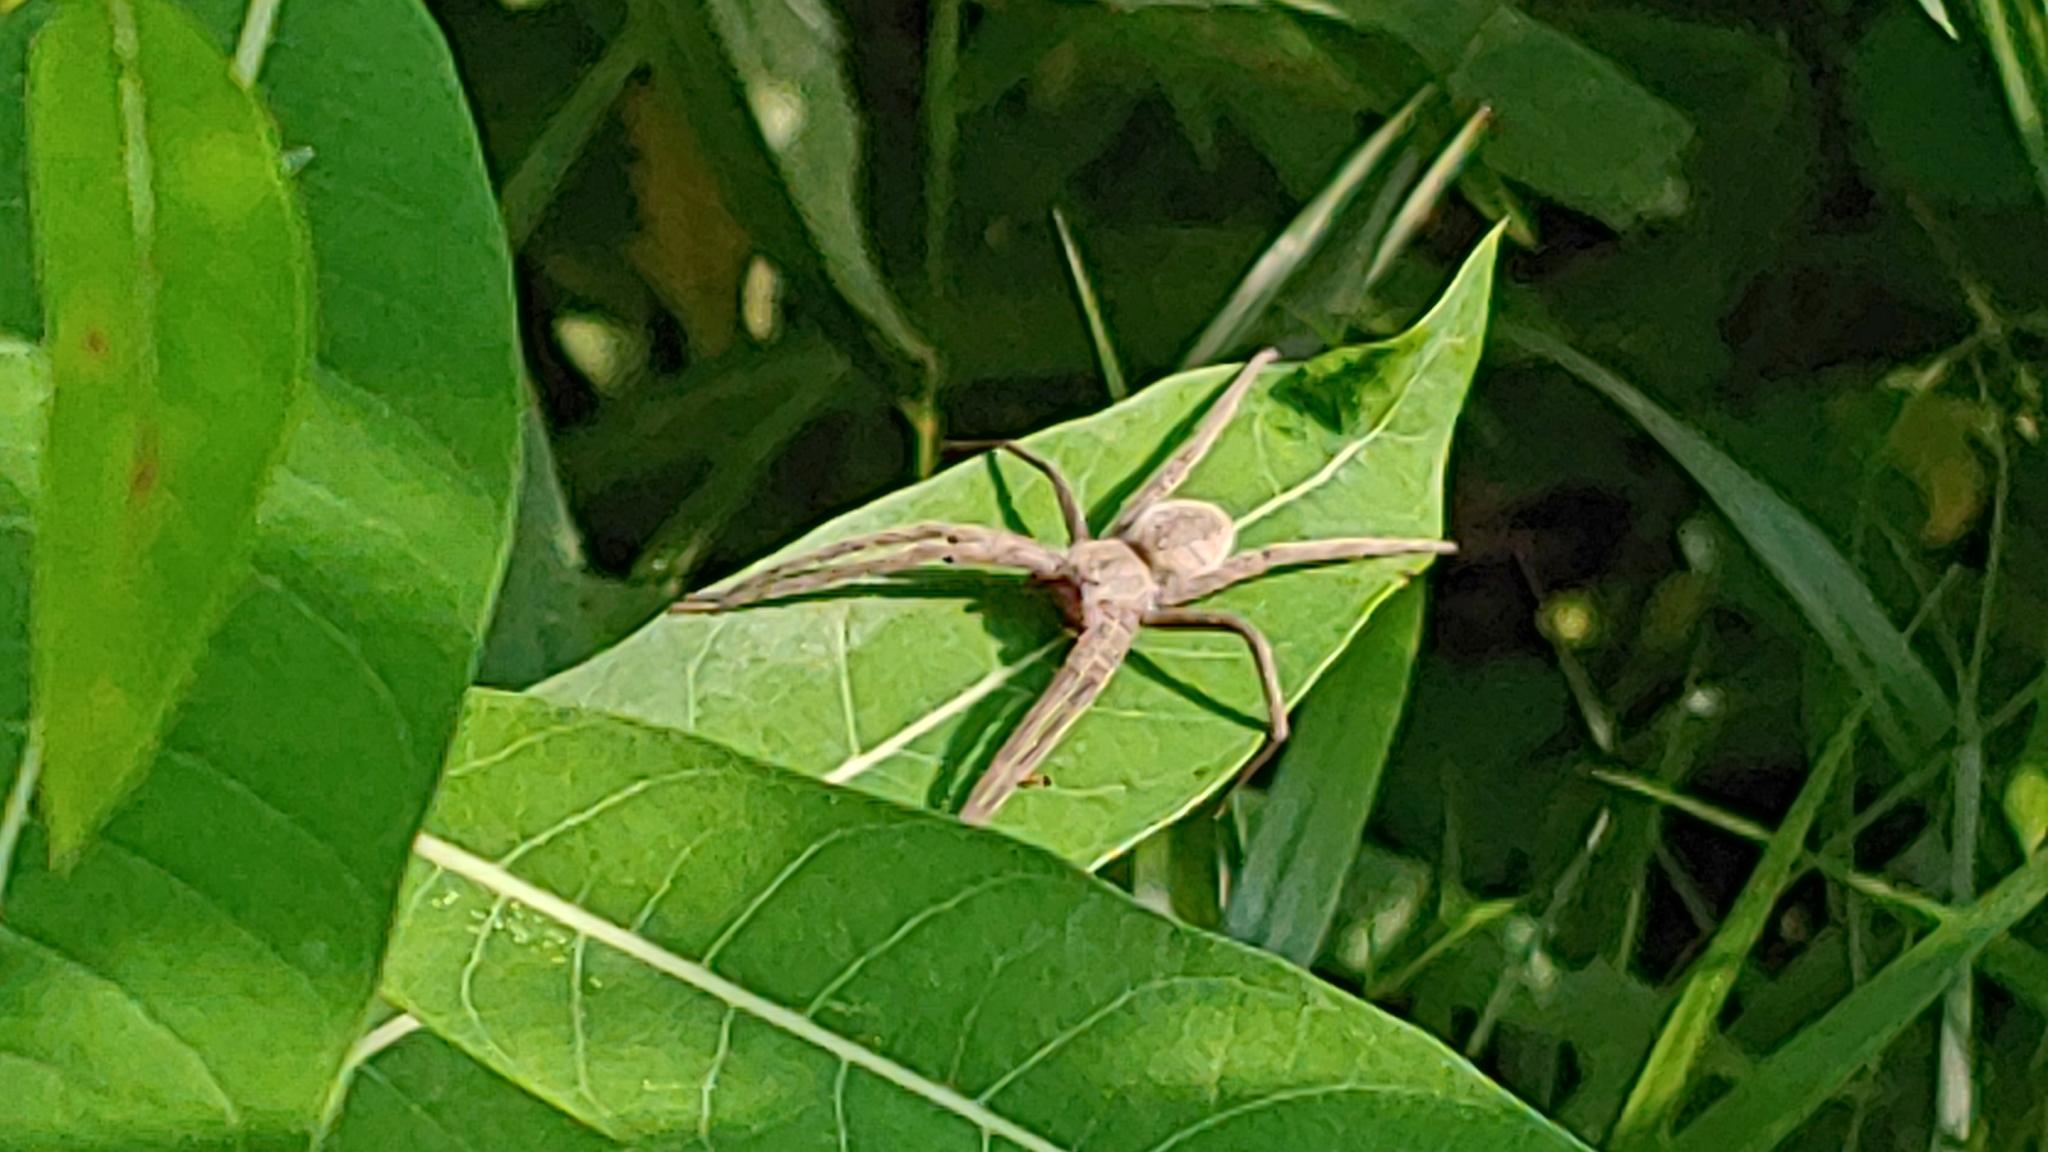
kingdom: Animalia
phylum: Arthropoda
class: Arachnida
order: Araneae
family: Pisauridae
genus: Pisaurina
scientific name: Pisaurina mira
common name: American nursery web spider
